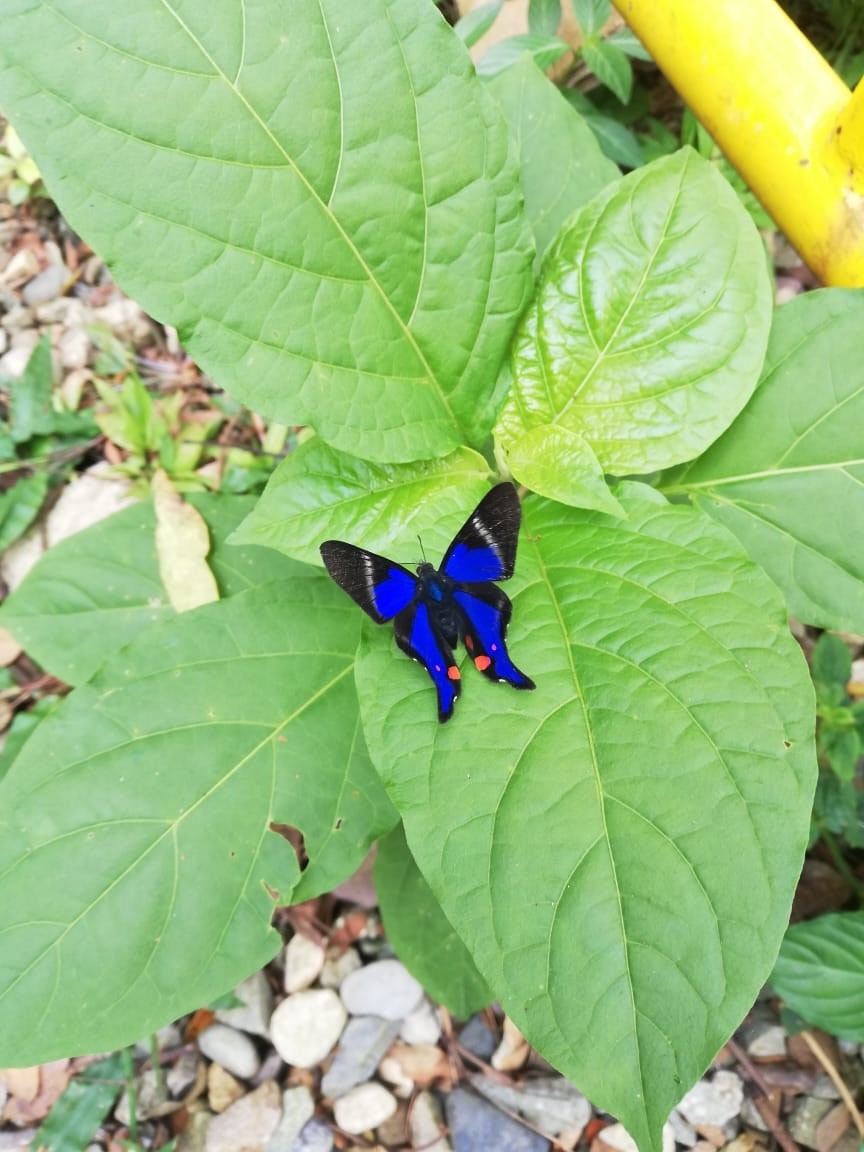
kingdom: Animalia
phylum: Arthropoda
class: Insecta
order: Lepidoptera
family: Riodinidae
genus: Rhetus
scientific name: Rhetus periander
